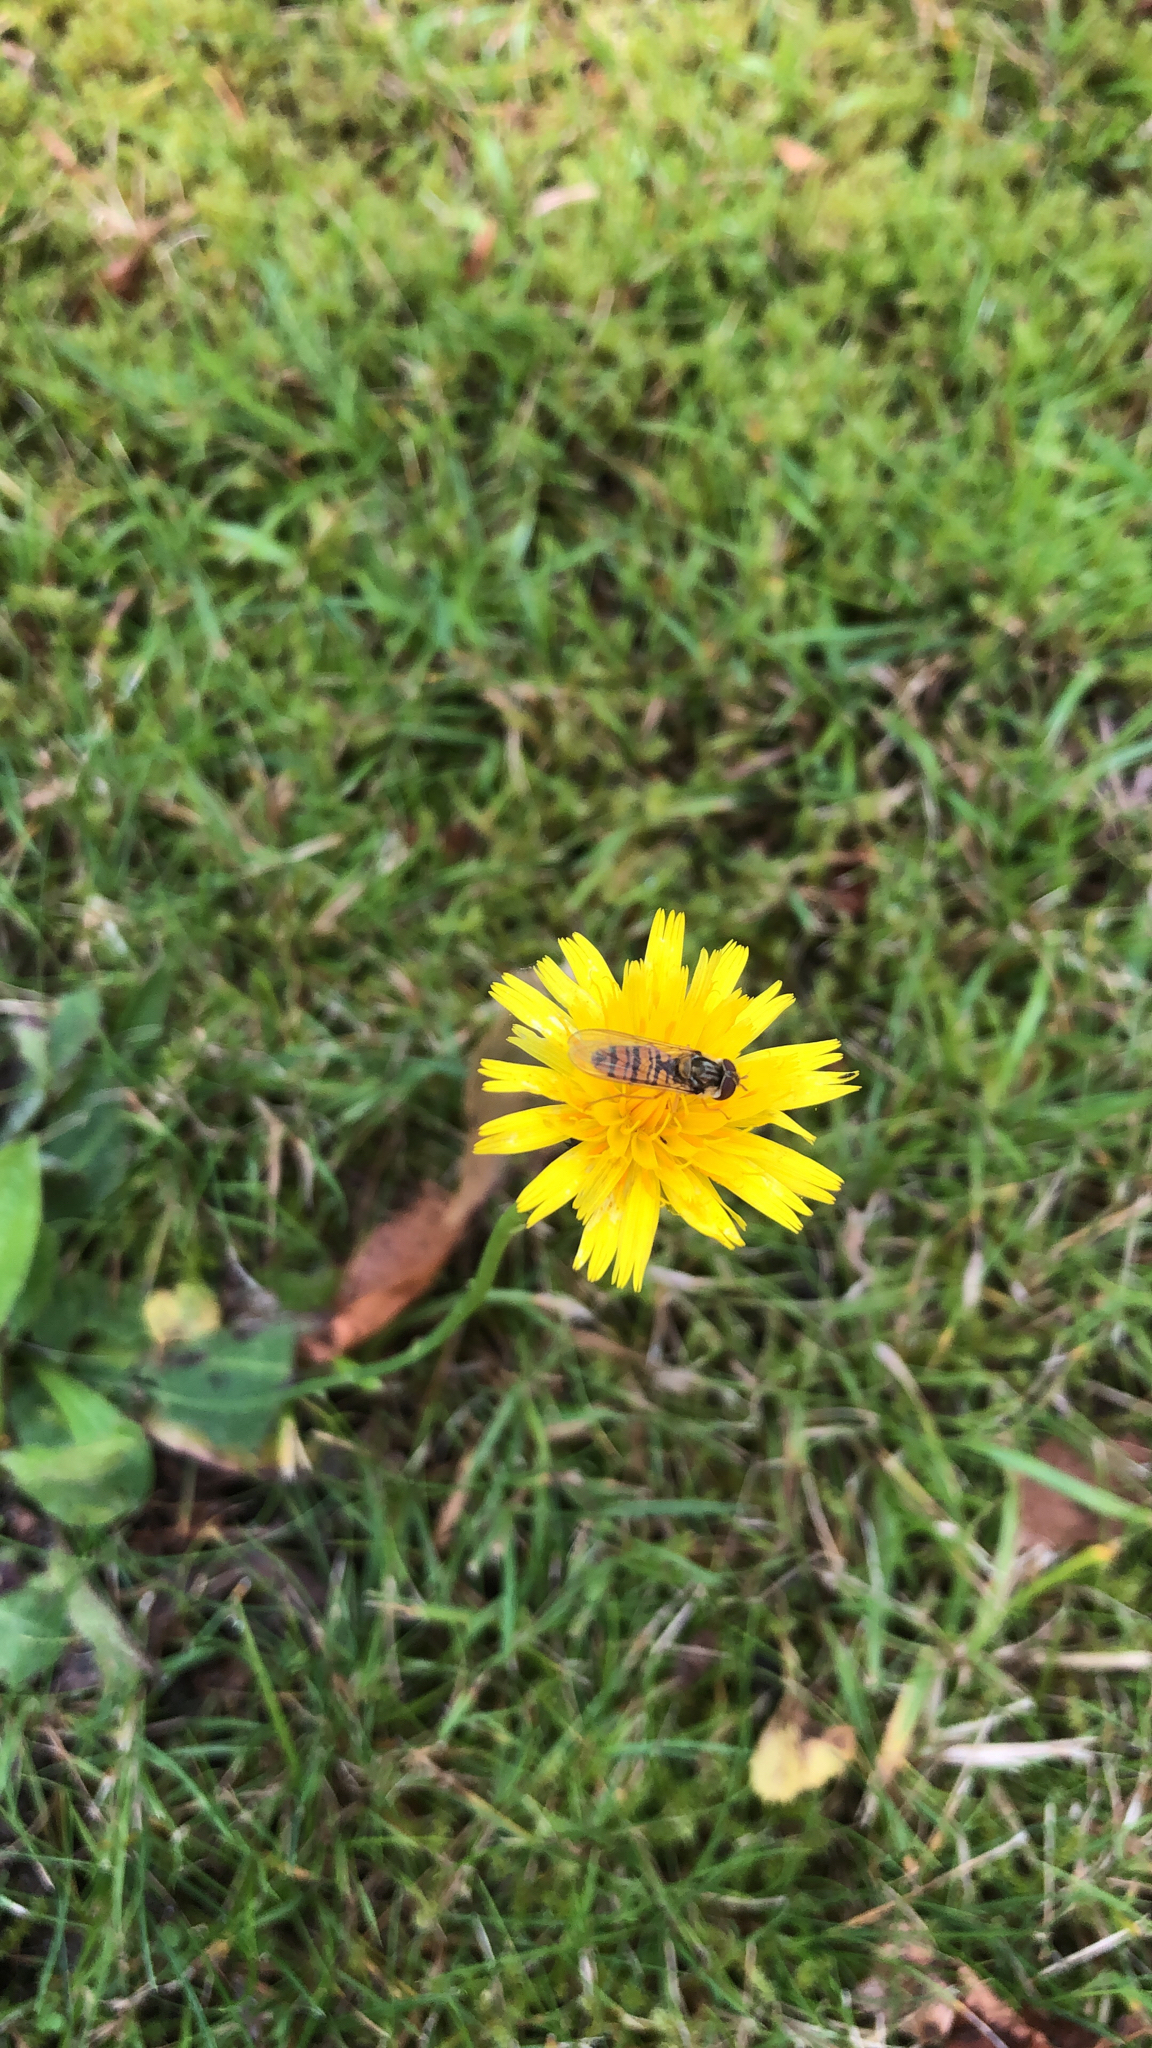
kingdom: Animalia
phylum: Arthropoda
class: Insecta
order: Diptera
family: Syrphidae
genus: Episyrphus
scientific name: Episyrphus balteatus
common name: Marmalade hoverfly
